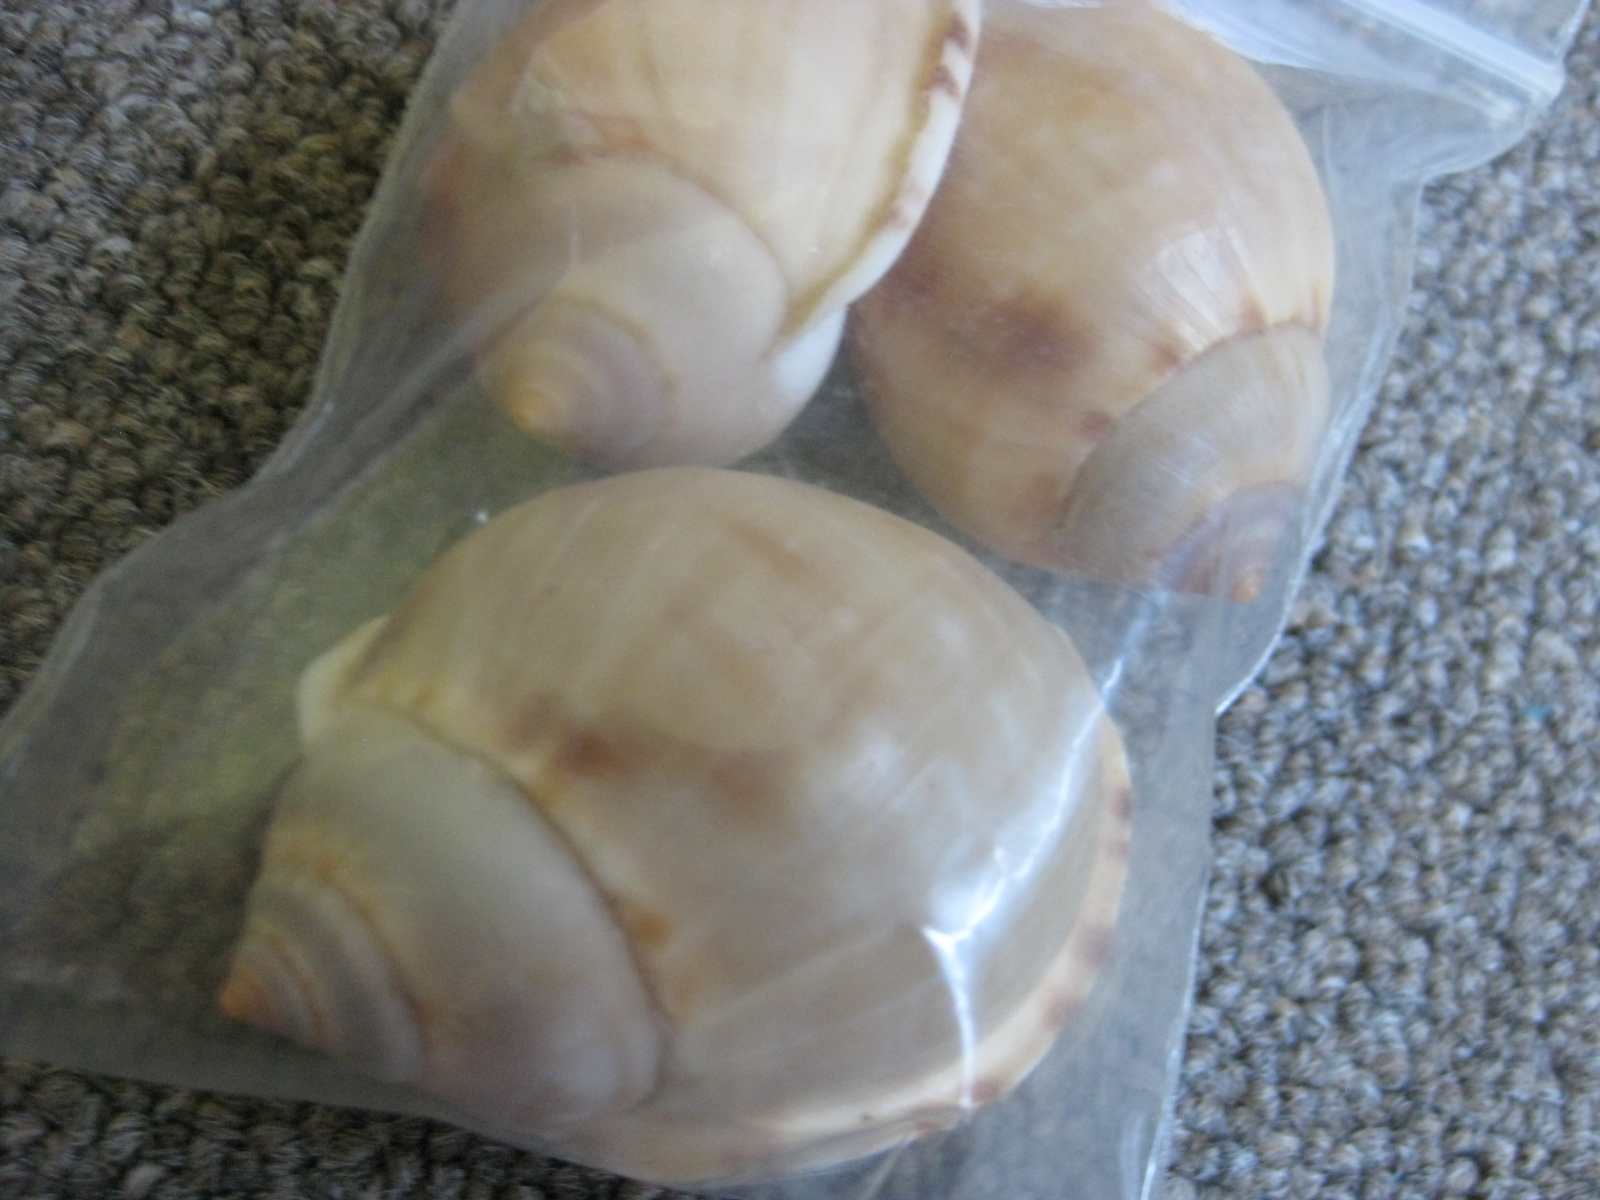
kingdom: Animalia
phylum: Mollusca
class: Gastropoda
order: Littorinimorpha
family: Cassidae
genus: Semicassis
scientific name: Semicassis labiata
